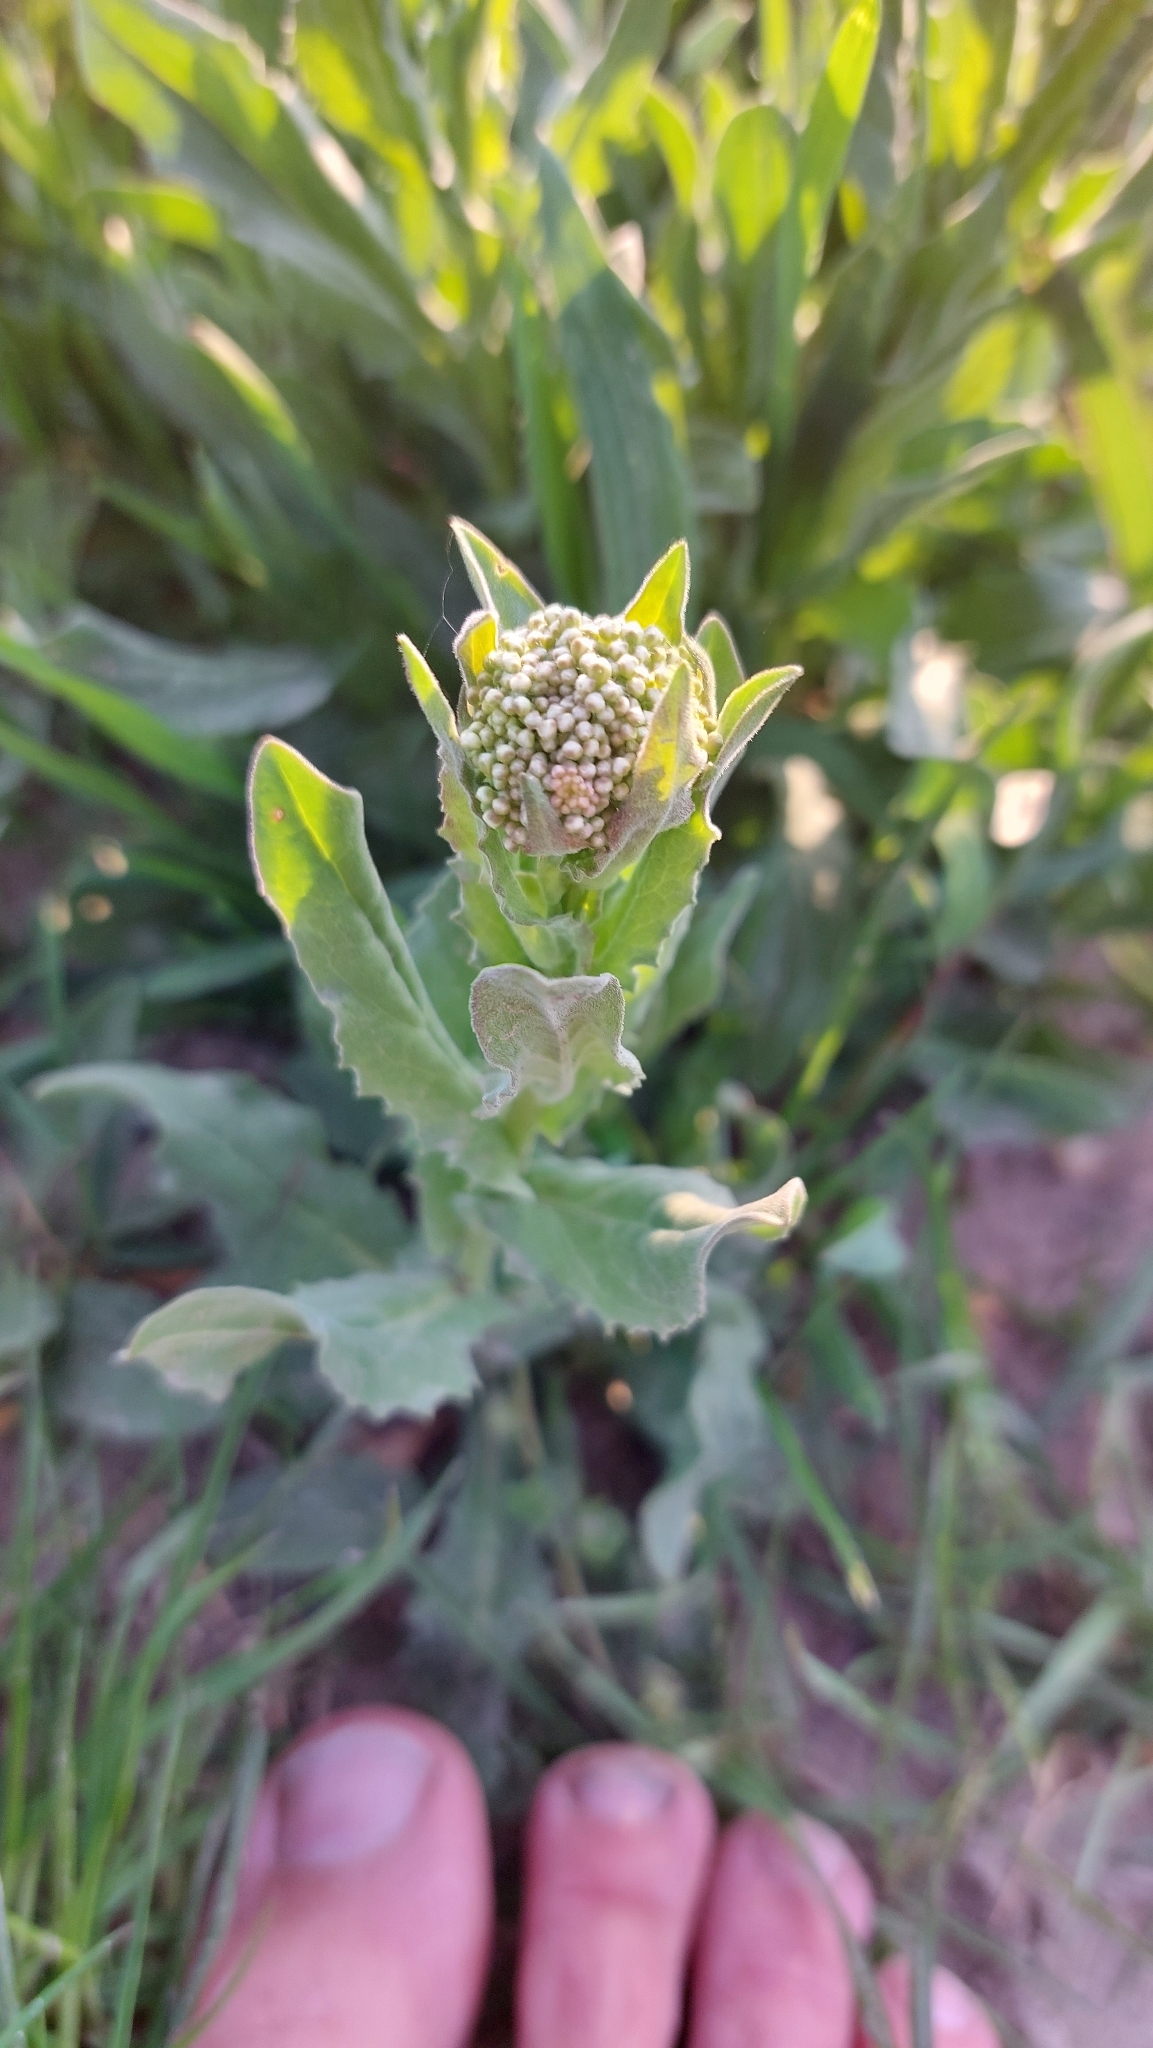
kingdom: Plantae
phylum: Tracheophyta
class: Magnoliopsida
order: Brassicales
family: Brassicaceae
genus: Lepidium
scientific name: Lepidium draba
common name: Hoary cress
